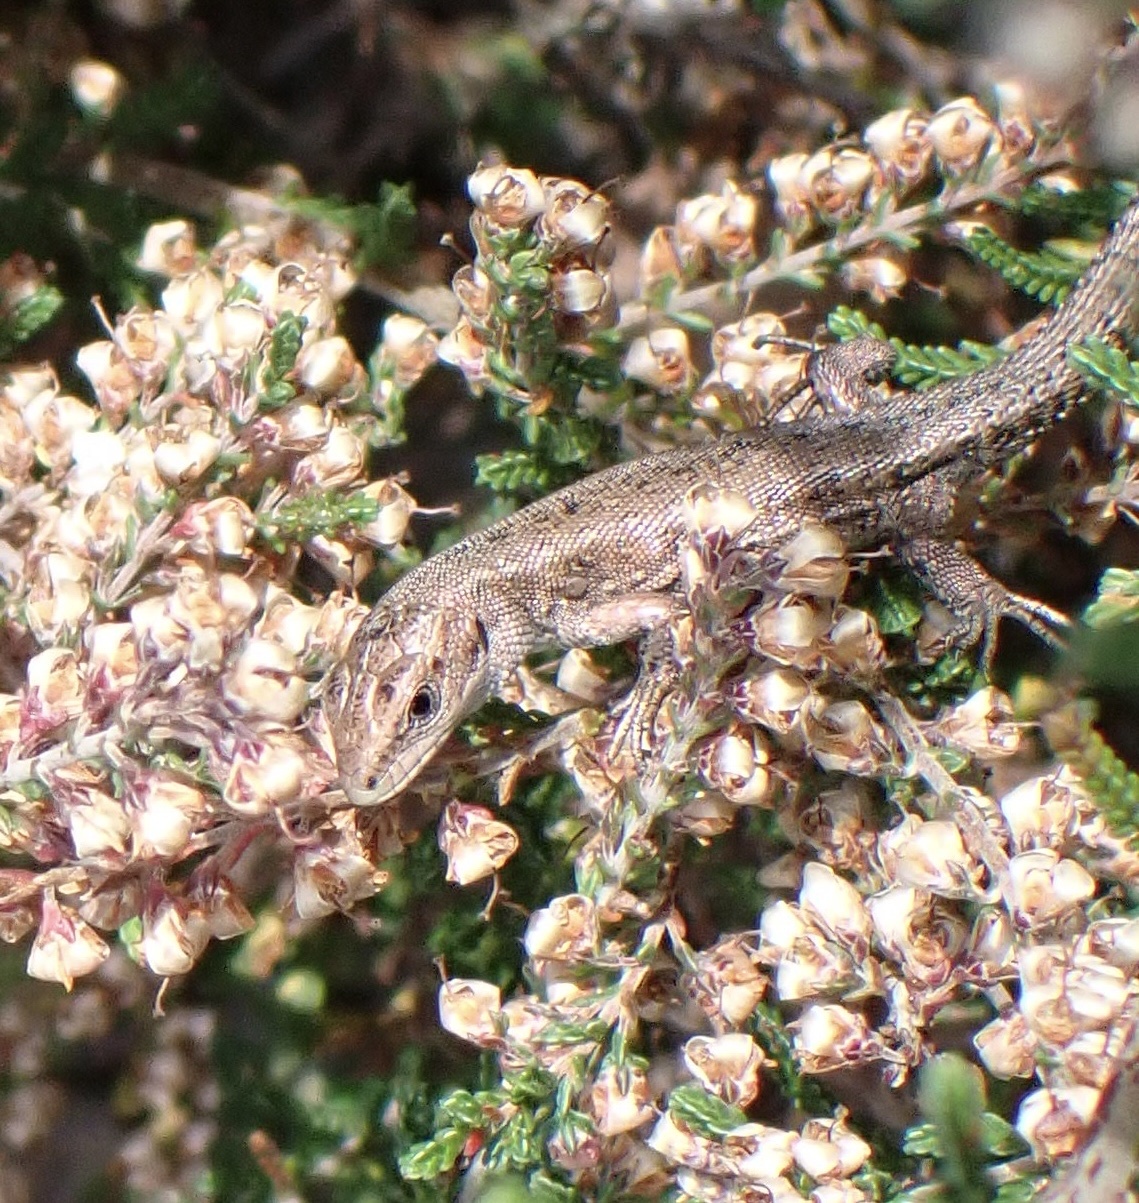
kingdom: Animalia
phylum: Chordata
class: Squamata
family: Lacertidae
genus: Zootoca
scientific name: Zootoca vivipara
